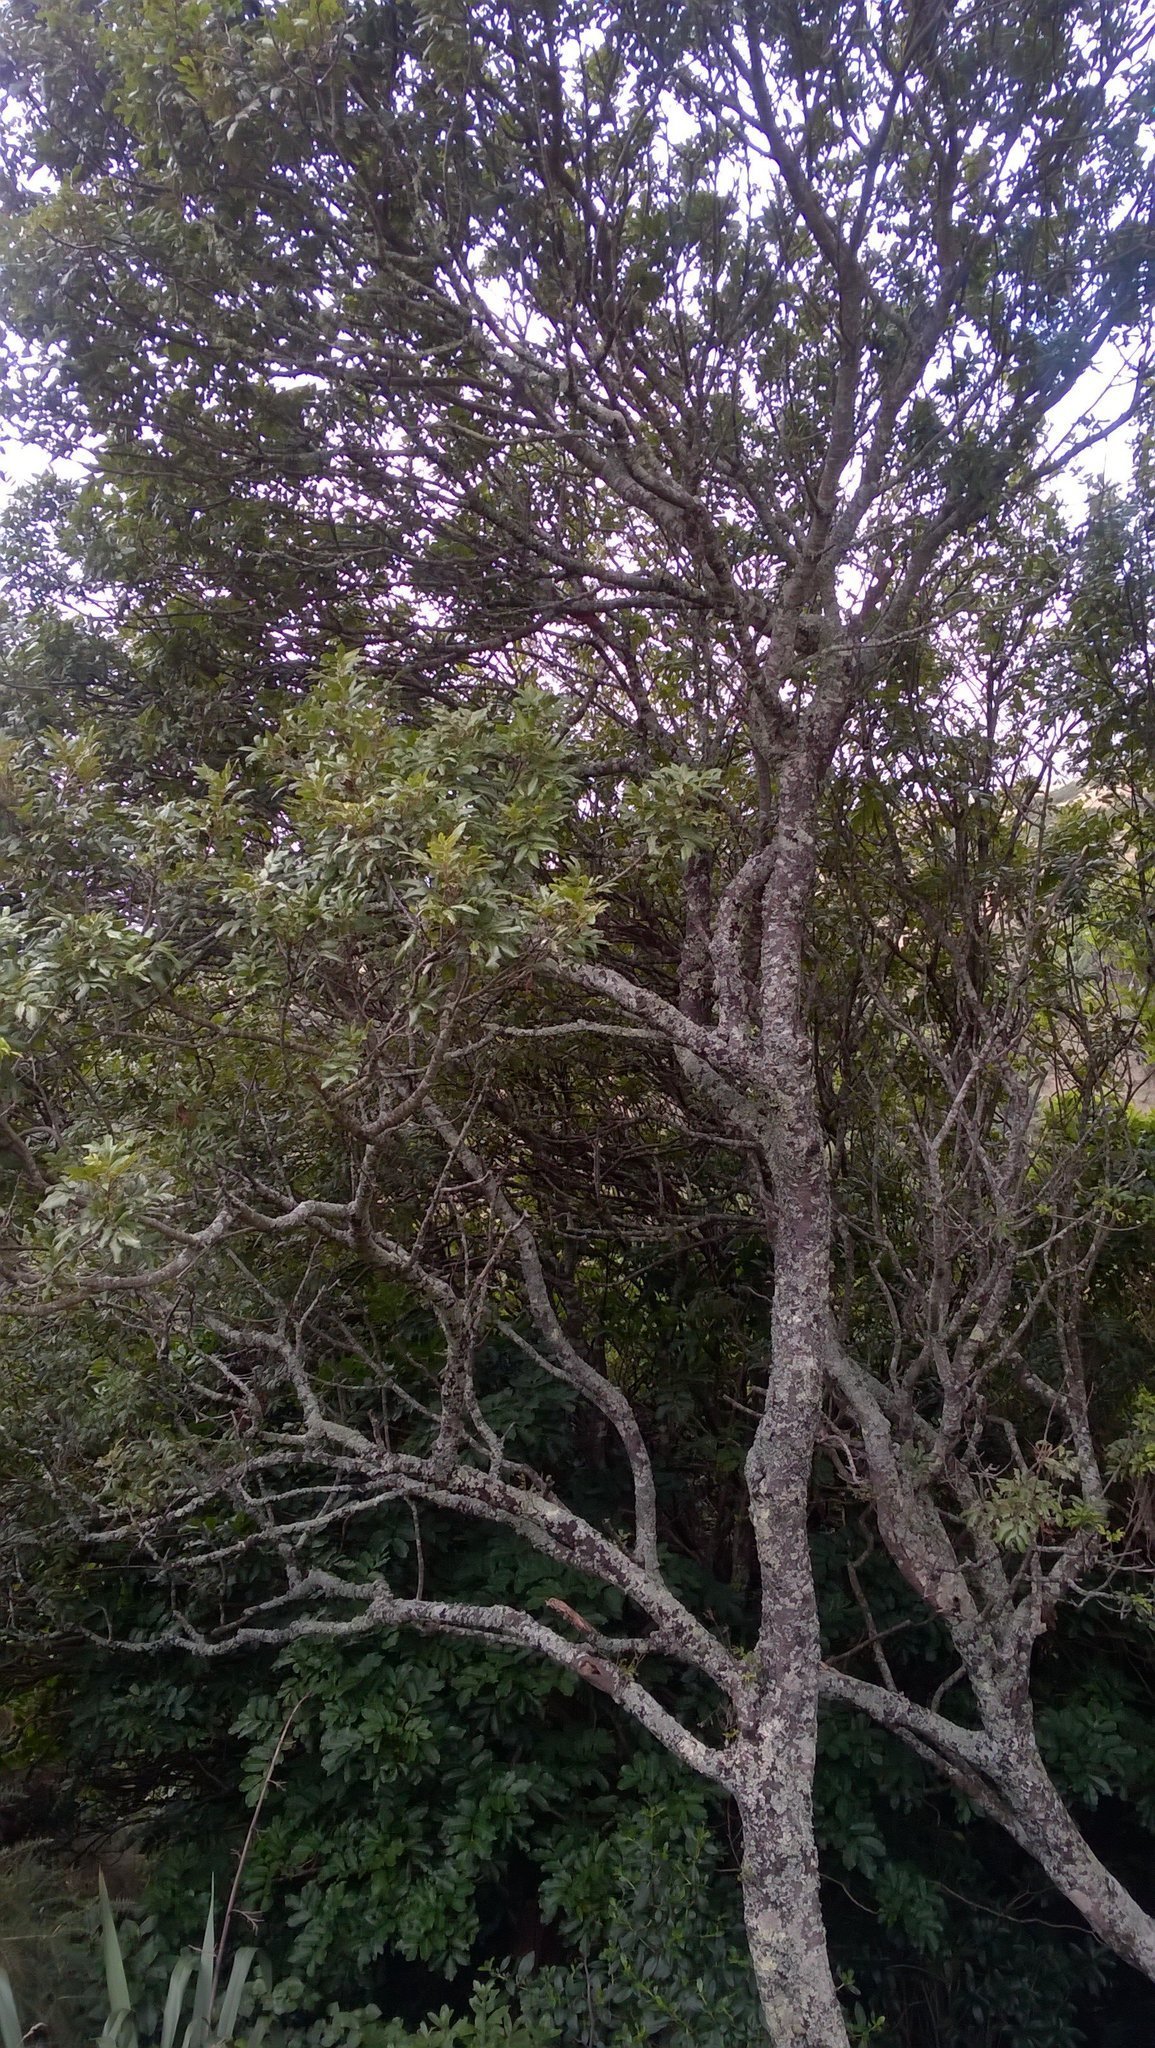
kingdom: Plantae
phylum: Tracheophyta
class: Magnoliopsida
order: Sapindales
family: Sapindaceae
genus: Alectryon
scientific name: Alectryon excelsus
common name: Three kings titoki
